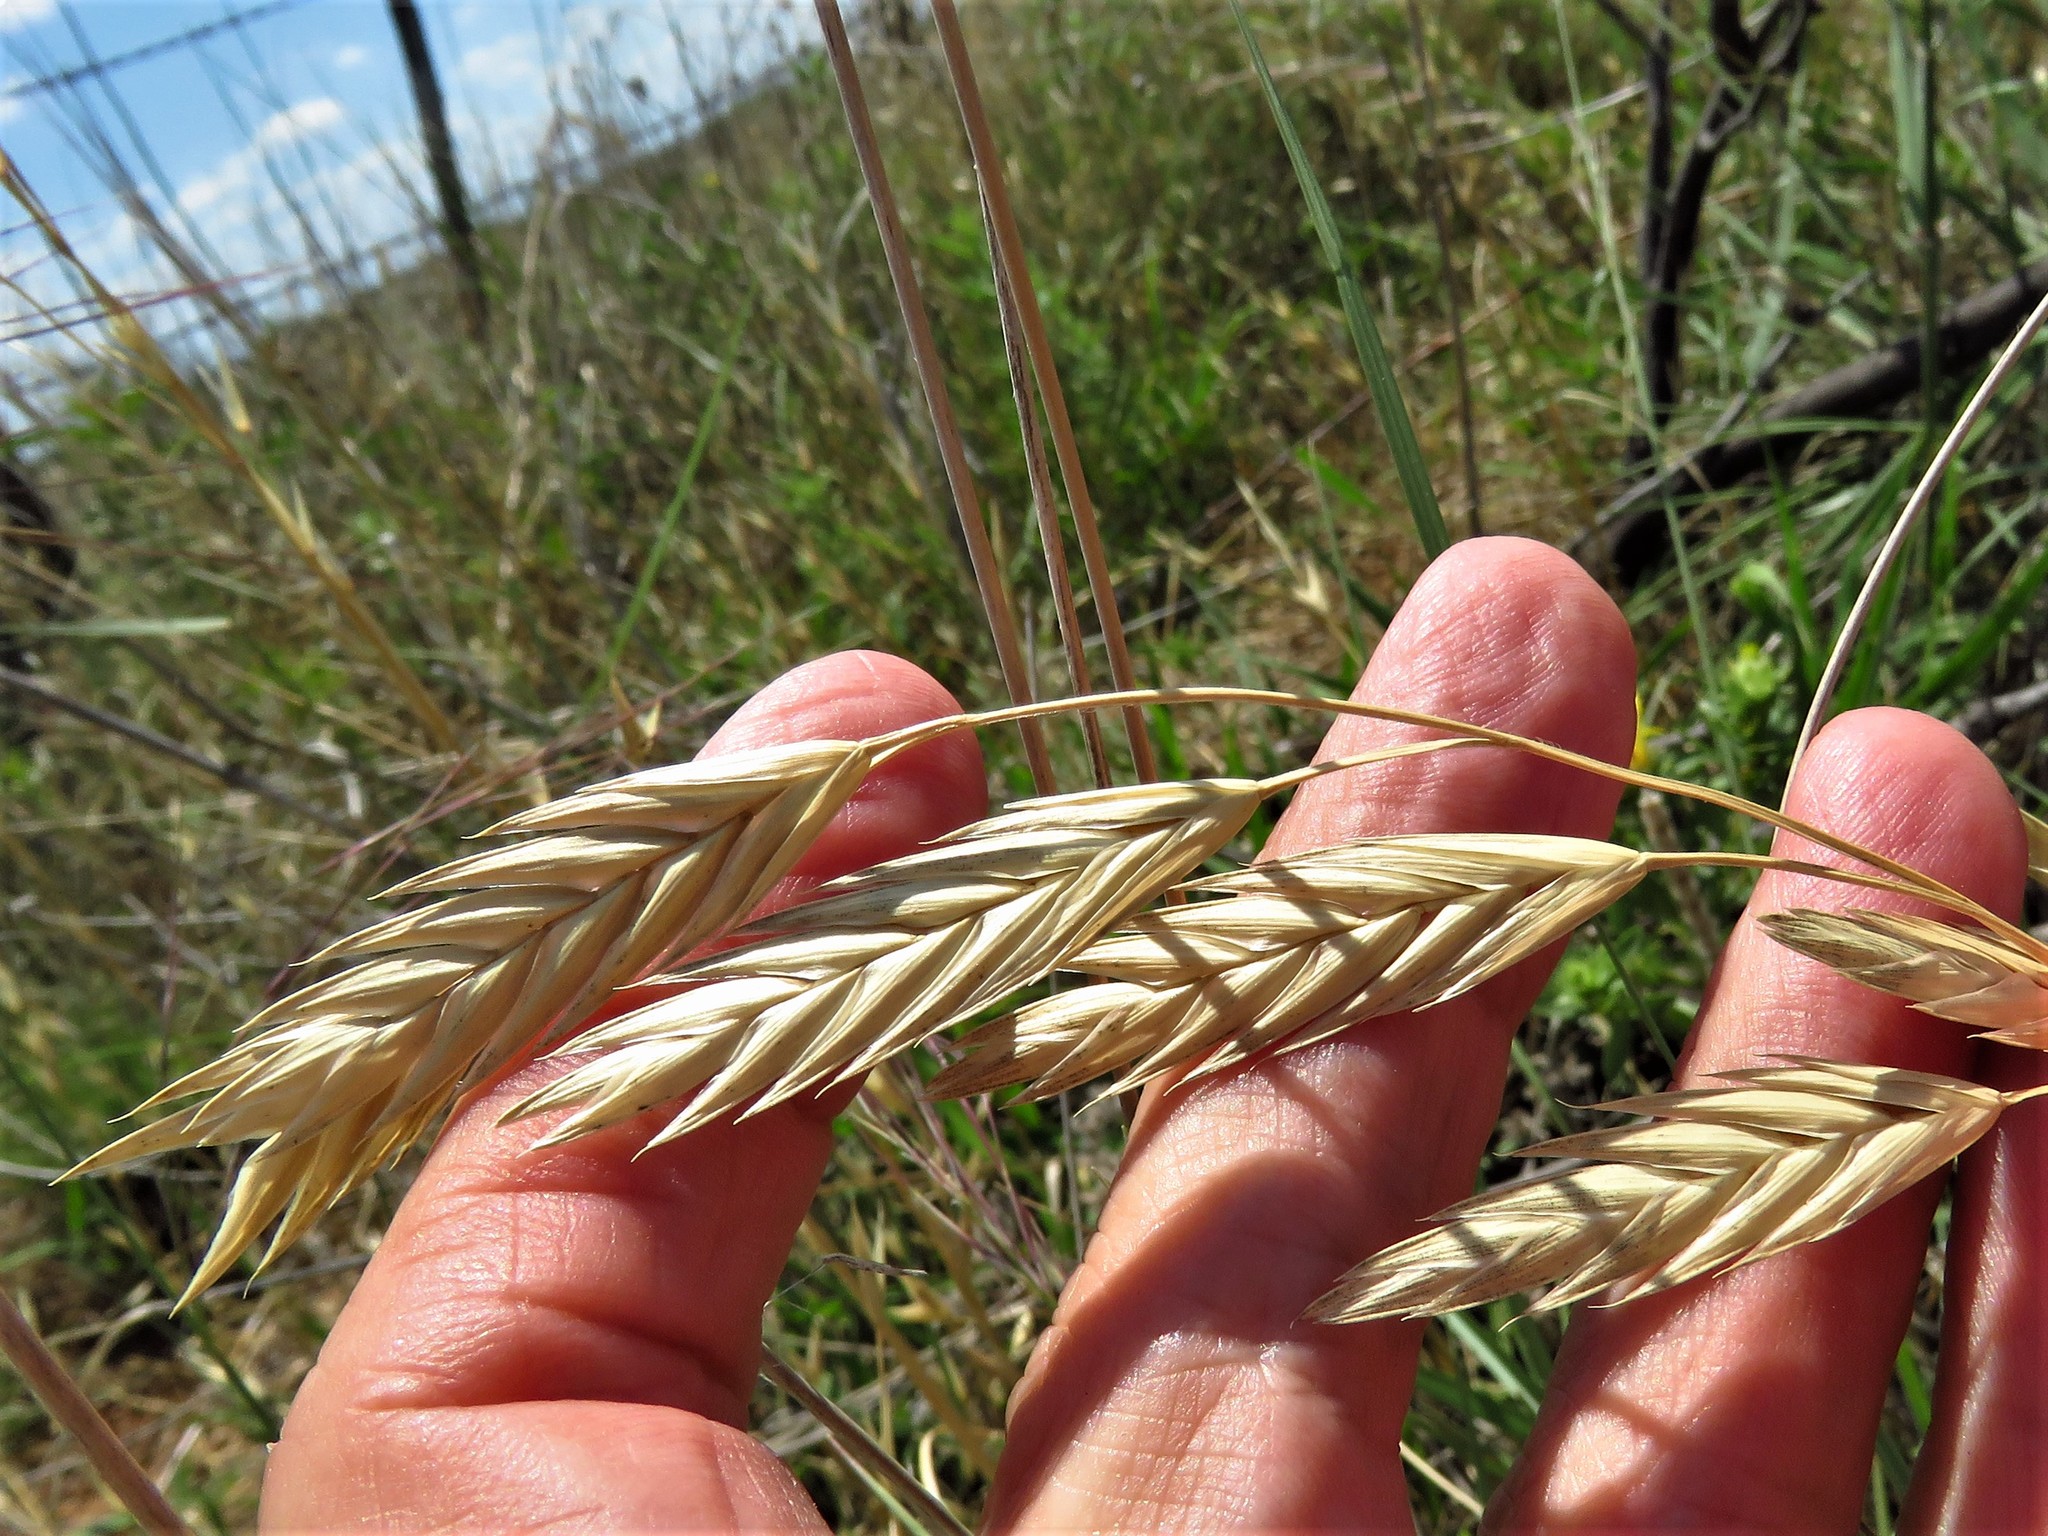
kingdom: Plantae
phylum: Tracheophyta
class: Liliopsida
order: Poales
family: Poaceae
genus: Bromus
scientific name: Bromus catharticus
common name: Rescuegrass
